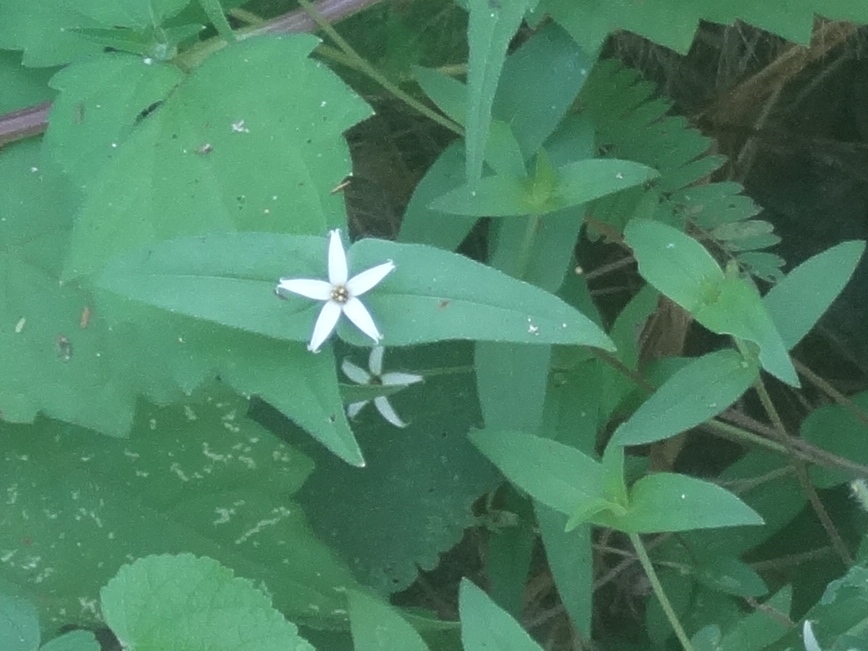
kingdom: Plantae
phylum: Tracheophyta
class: Magnoliopsida
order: Asterales
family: Asteraceae
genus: Zinnia
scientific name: Zinnia zinnioides
